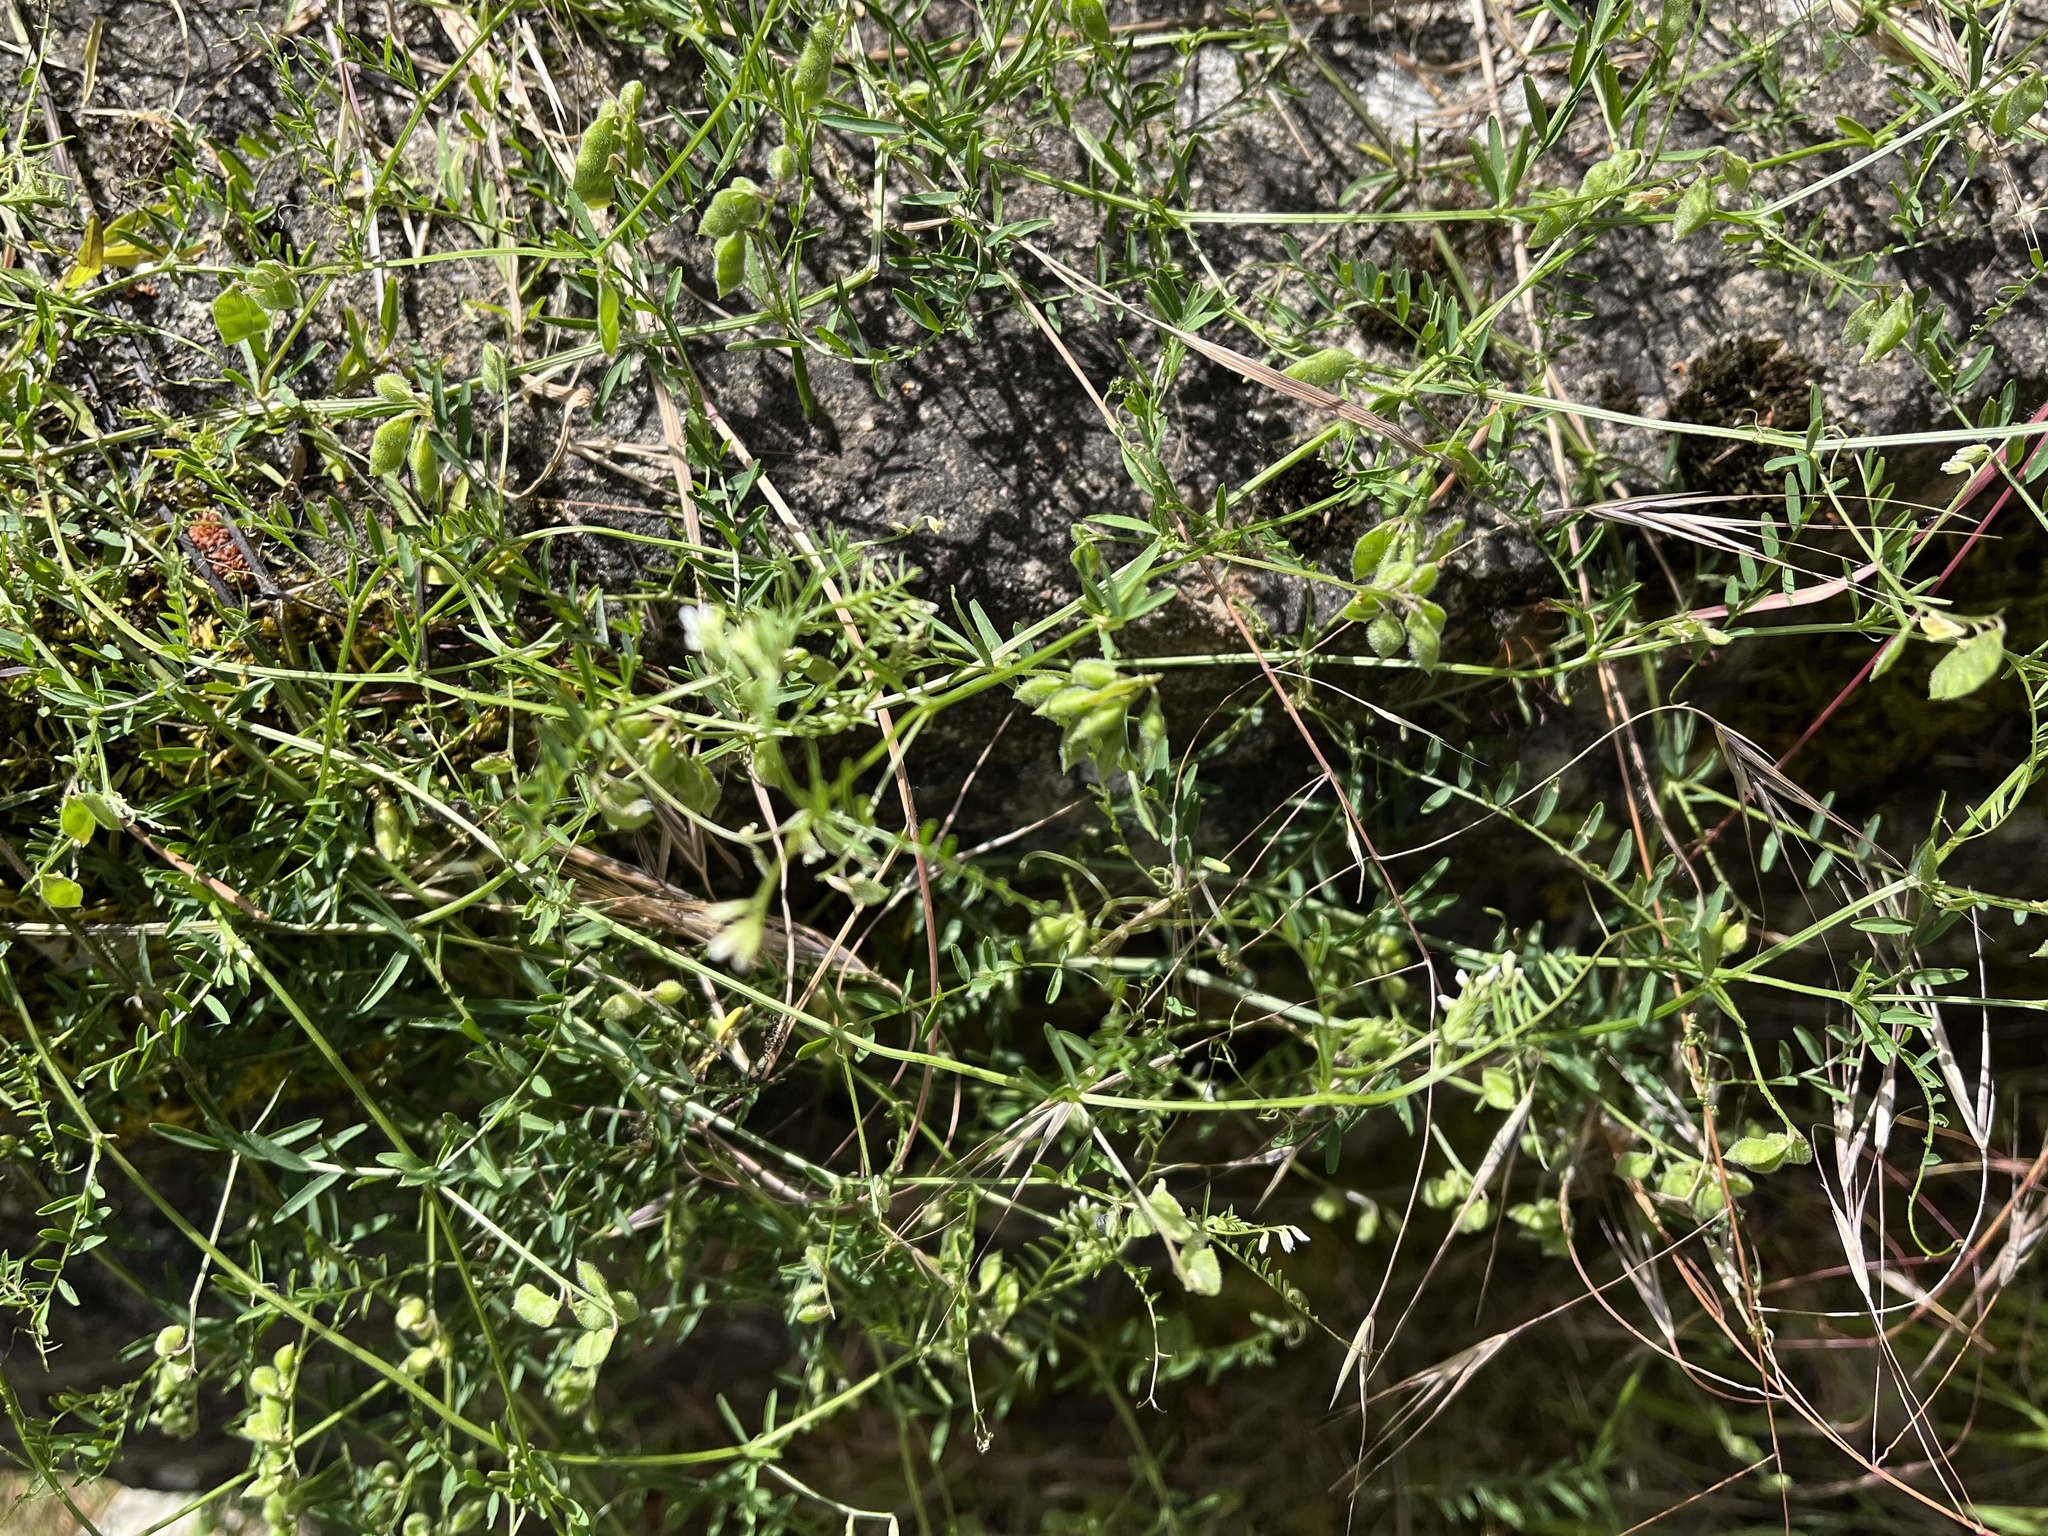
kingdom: Plantae
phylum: Tracheophyta
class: Magnoliopsida
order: Fabales
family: Fabaceae
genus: Vicia
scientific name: Vicia hirsuta
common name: Tiny vetch
